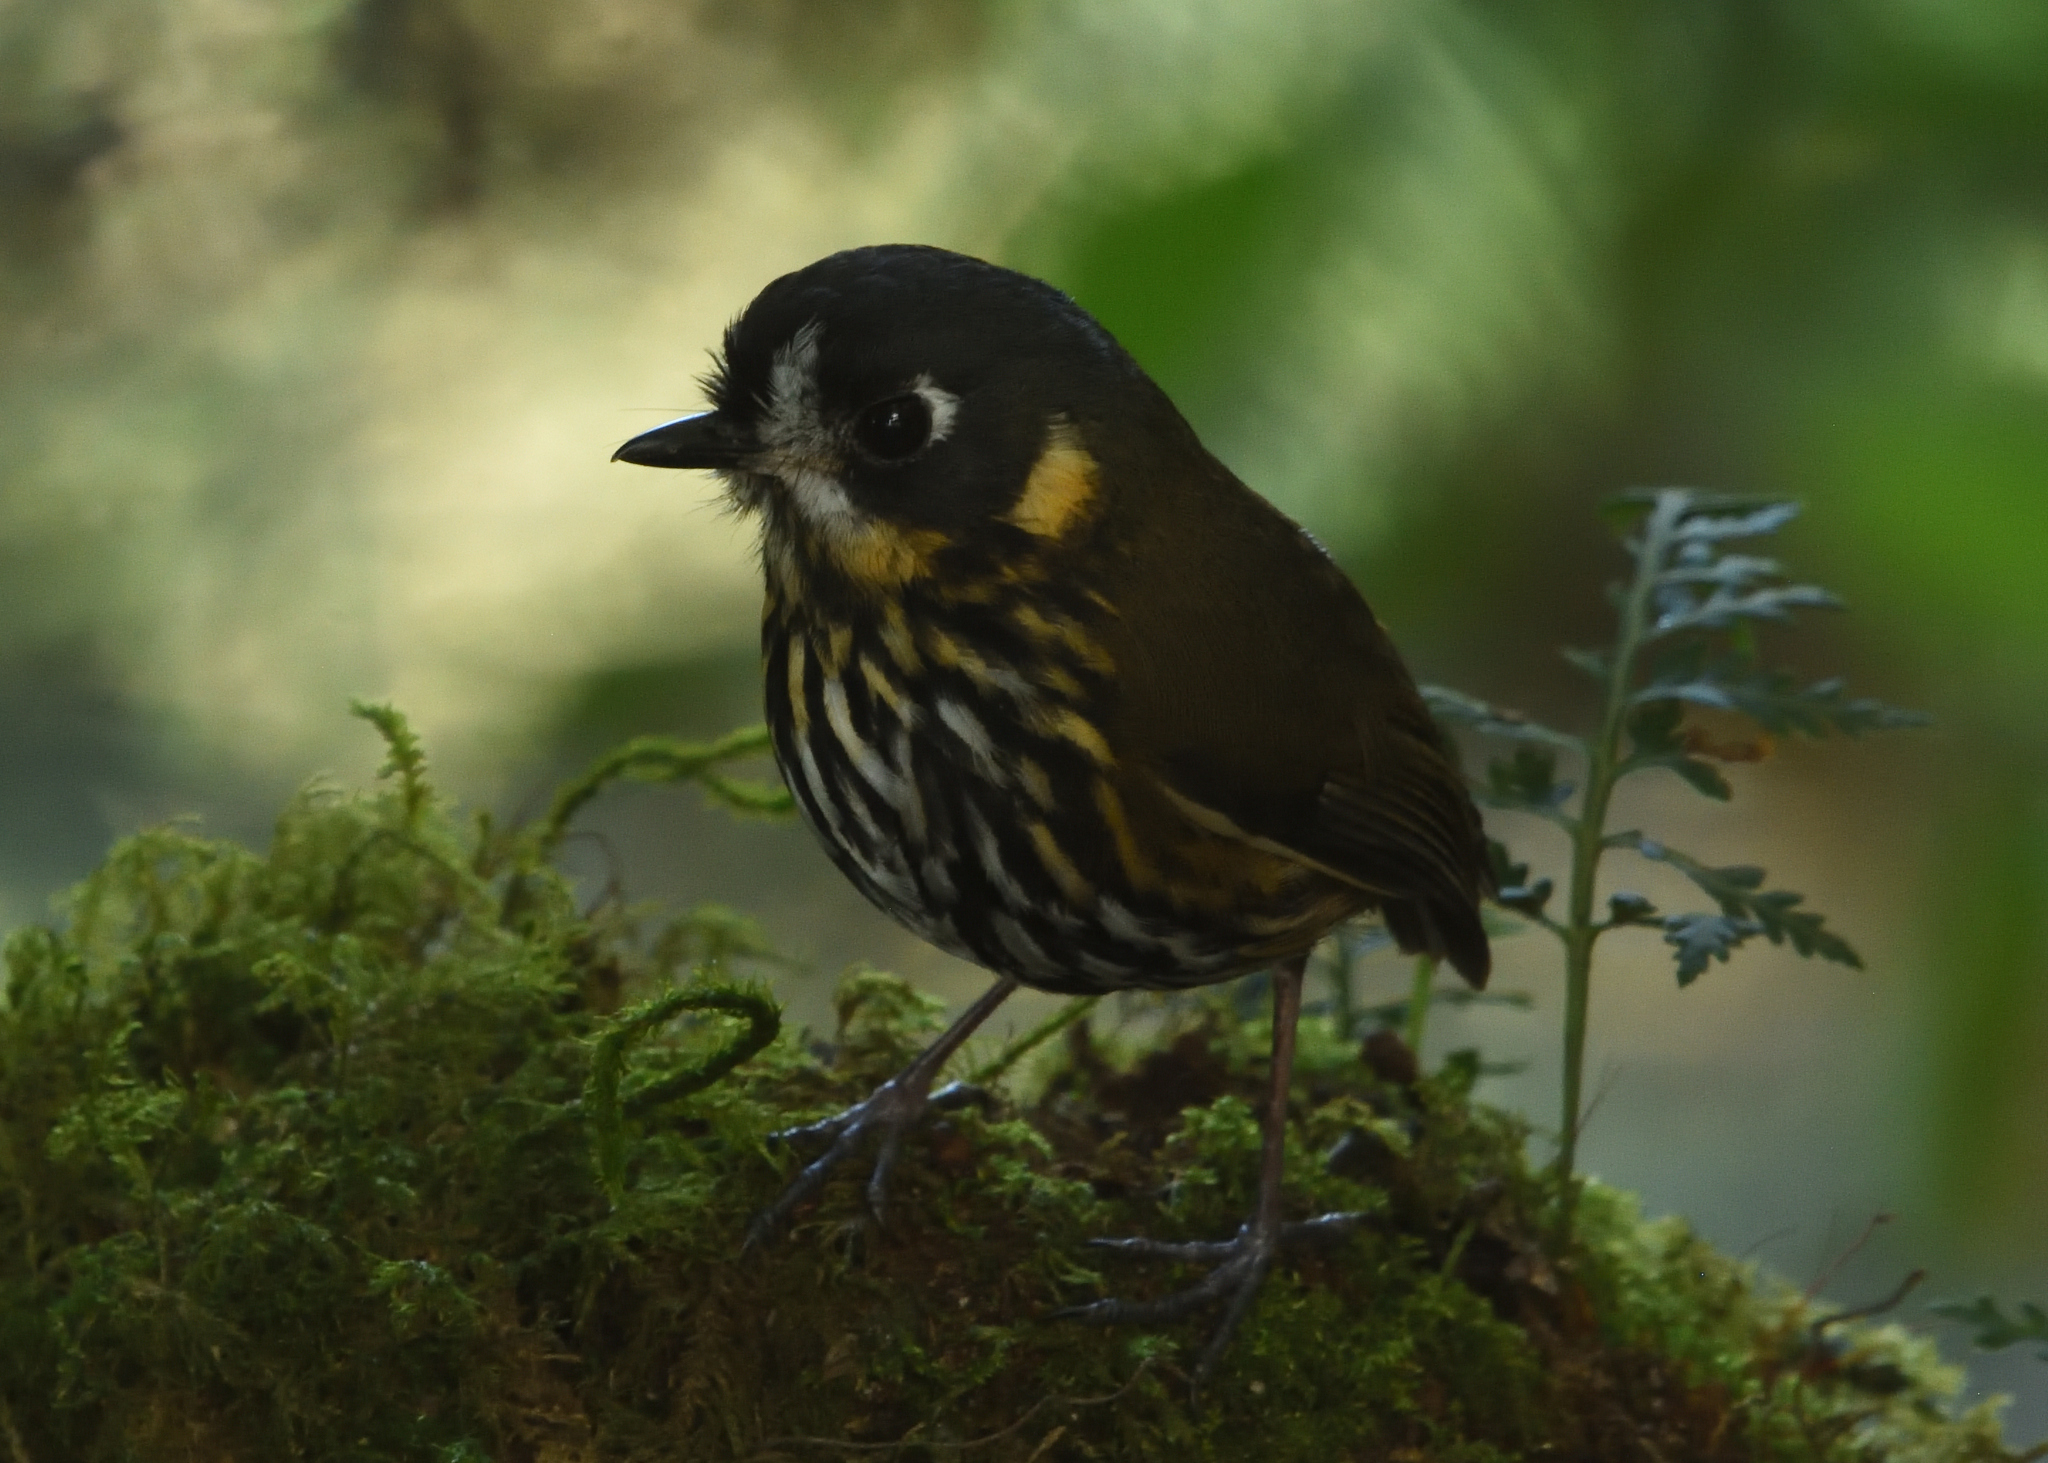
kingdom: Animalia
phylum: Chordata
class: Aves
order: Passeriformes
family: Grallariidae
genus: Grallaricula
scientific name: Grallaricula lineifrons
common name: Crescent-faced antpitta
